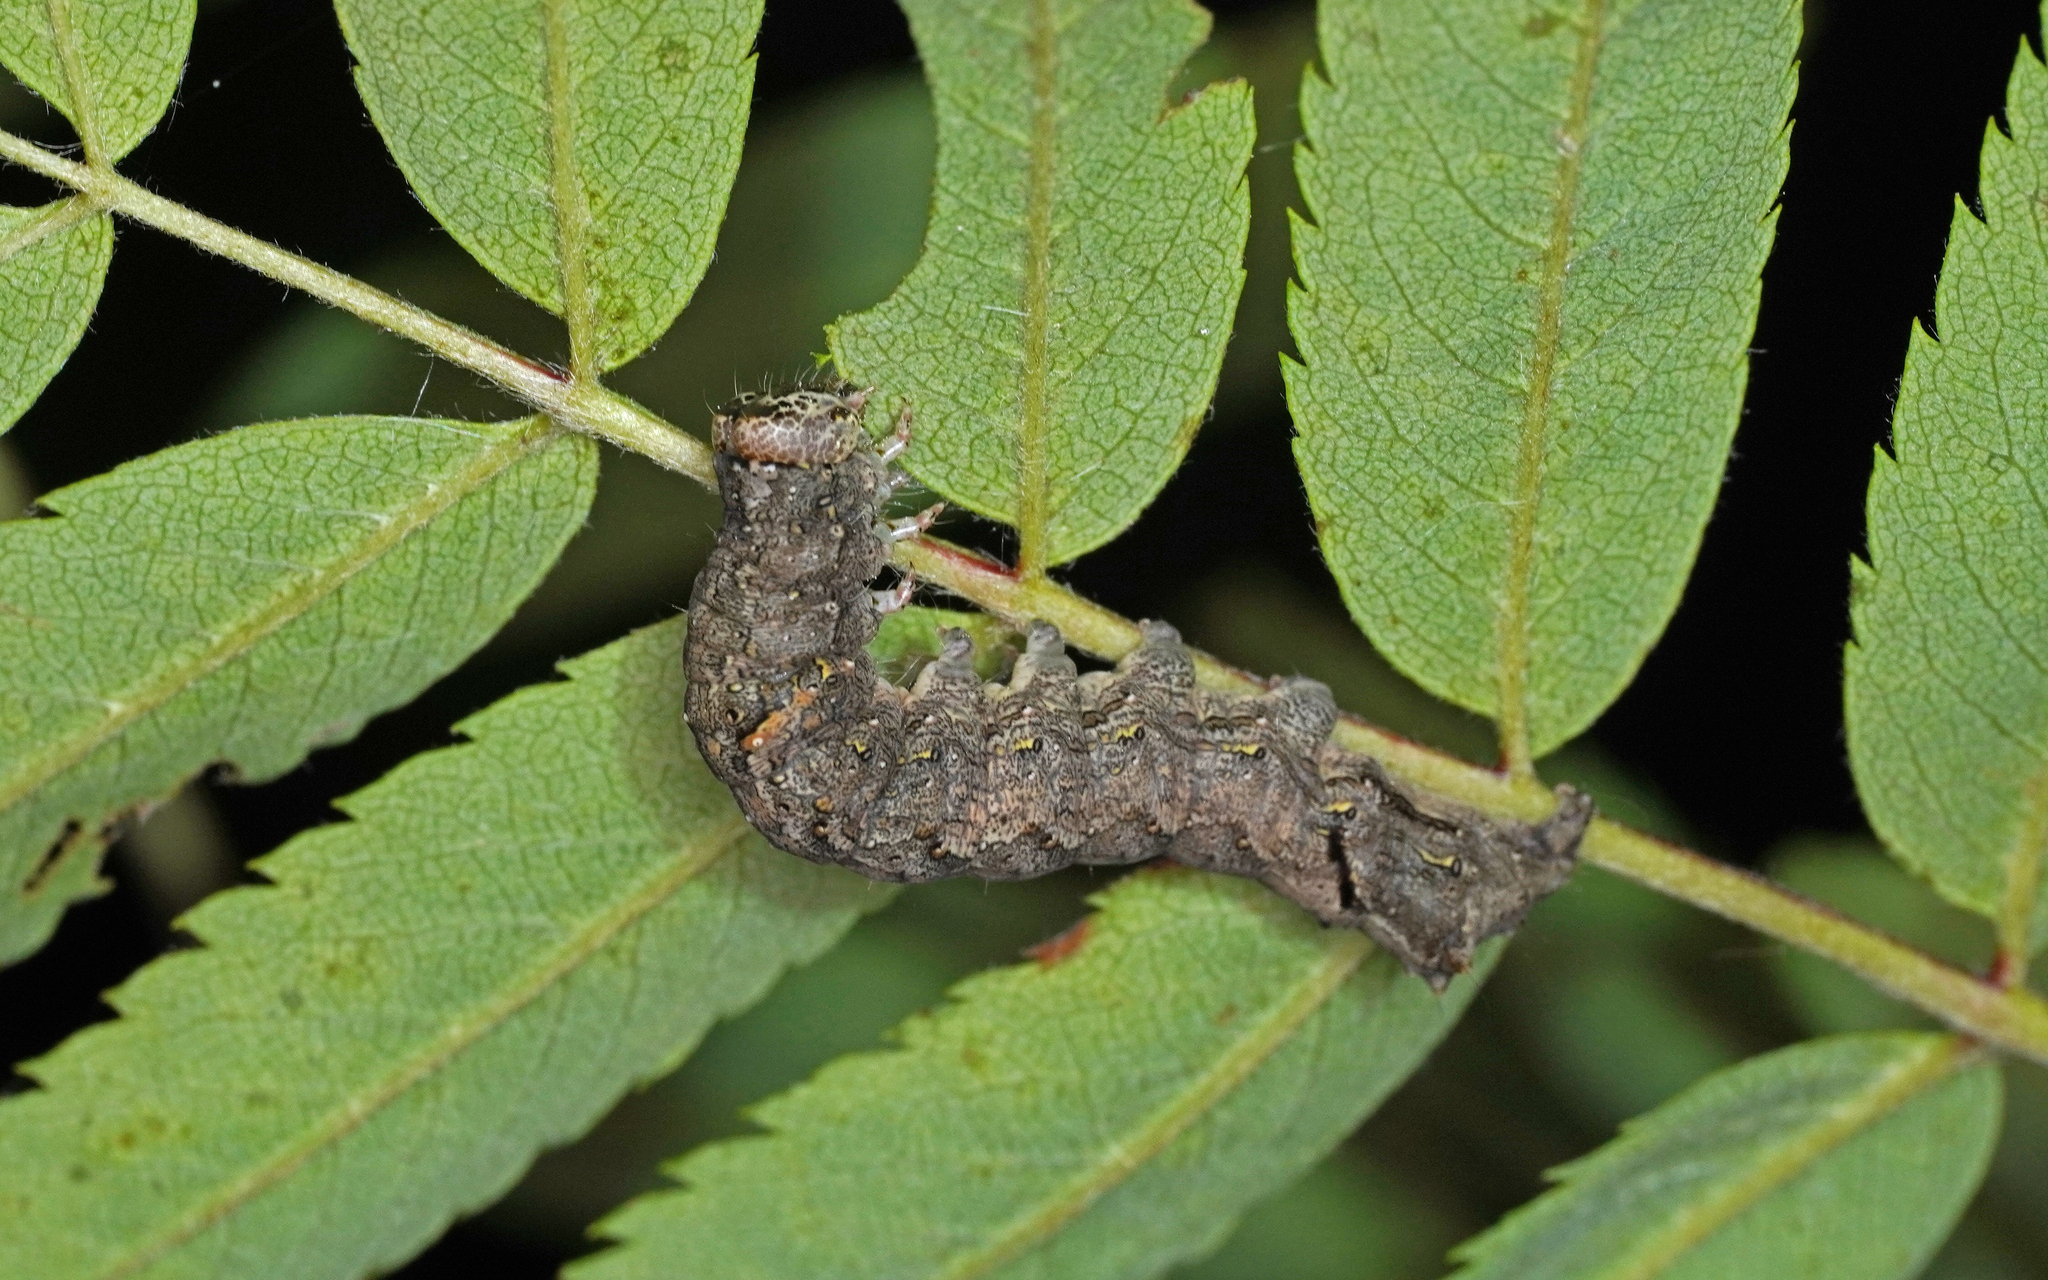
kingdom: Animalia
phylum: Arthropoda
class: Insecta
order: Lepidoptera
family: Noctuidae
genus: Allophyes
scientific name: Allophyes oxyacanthae
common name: Green-brindled crescent
